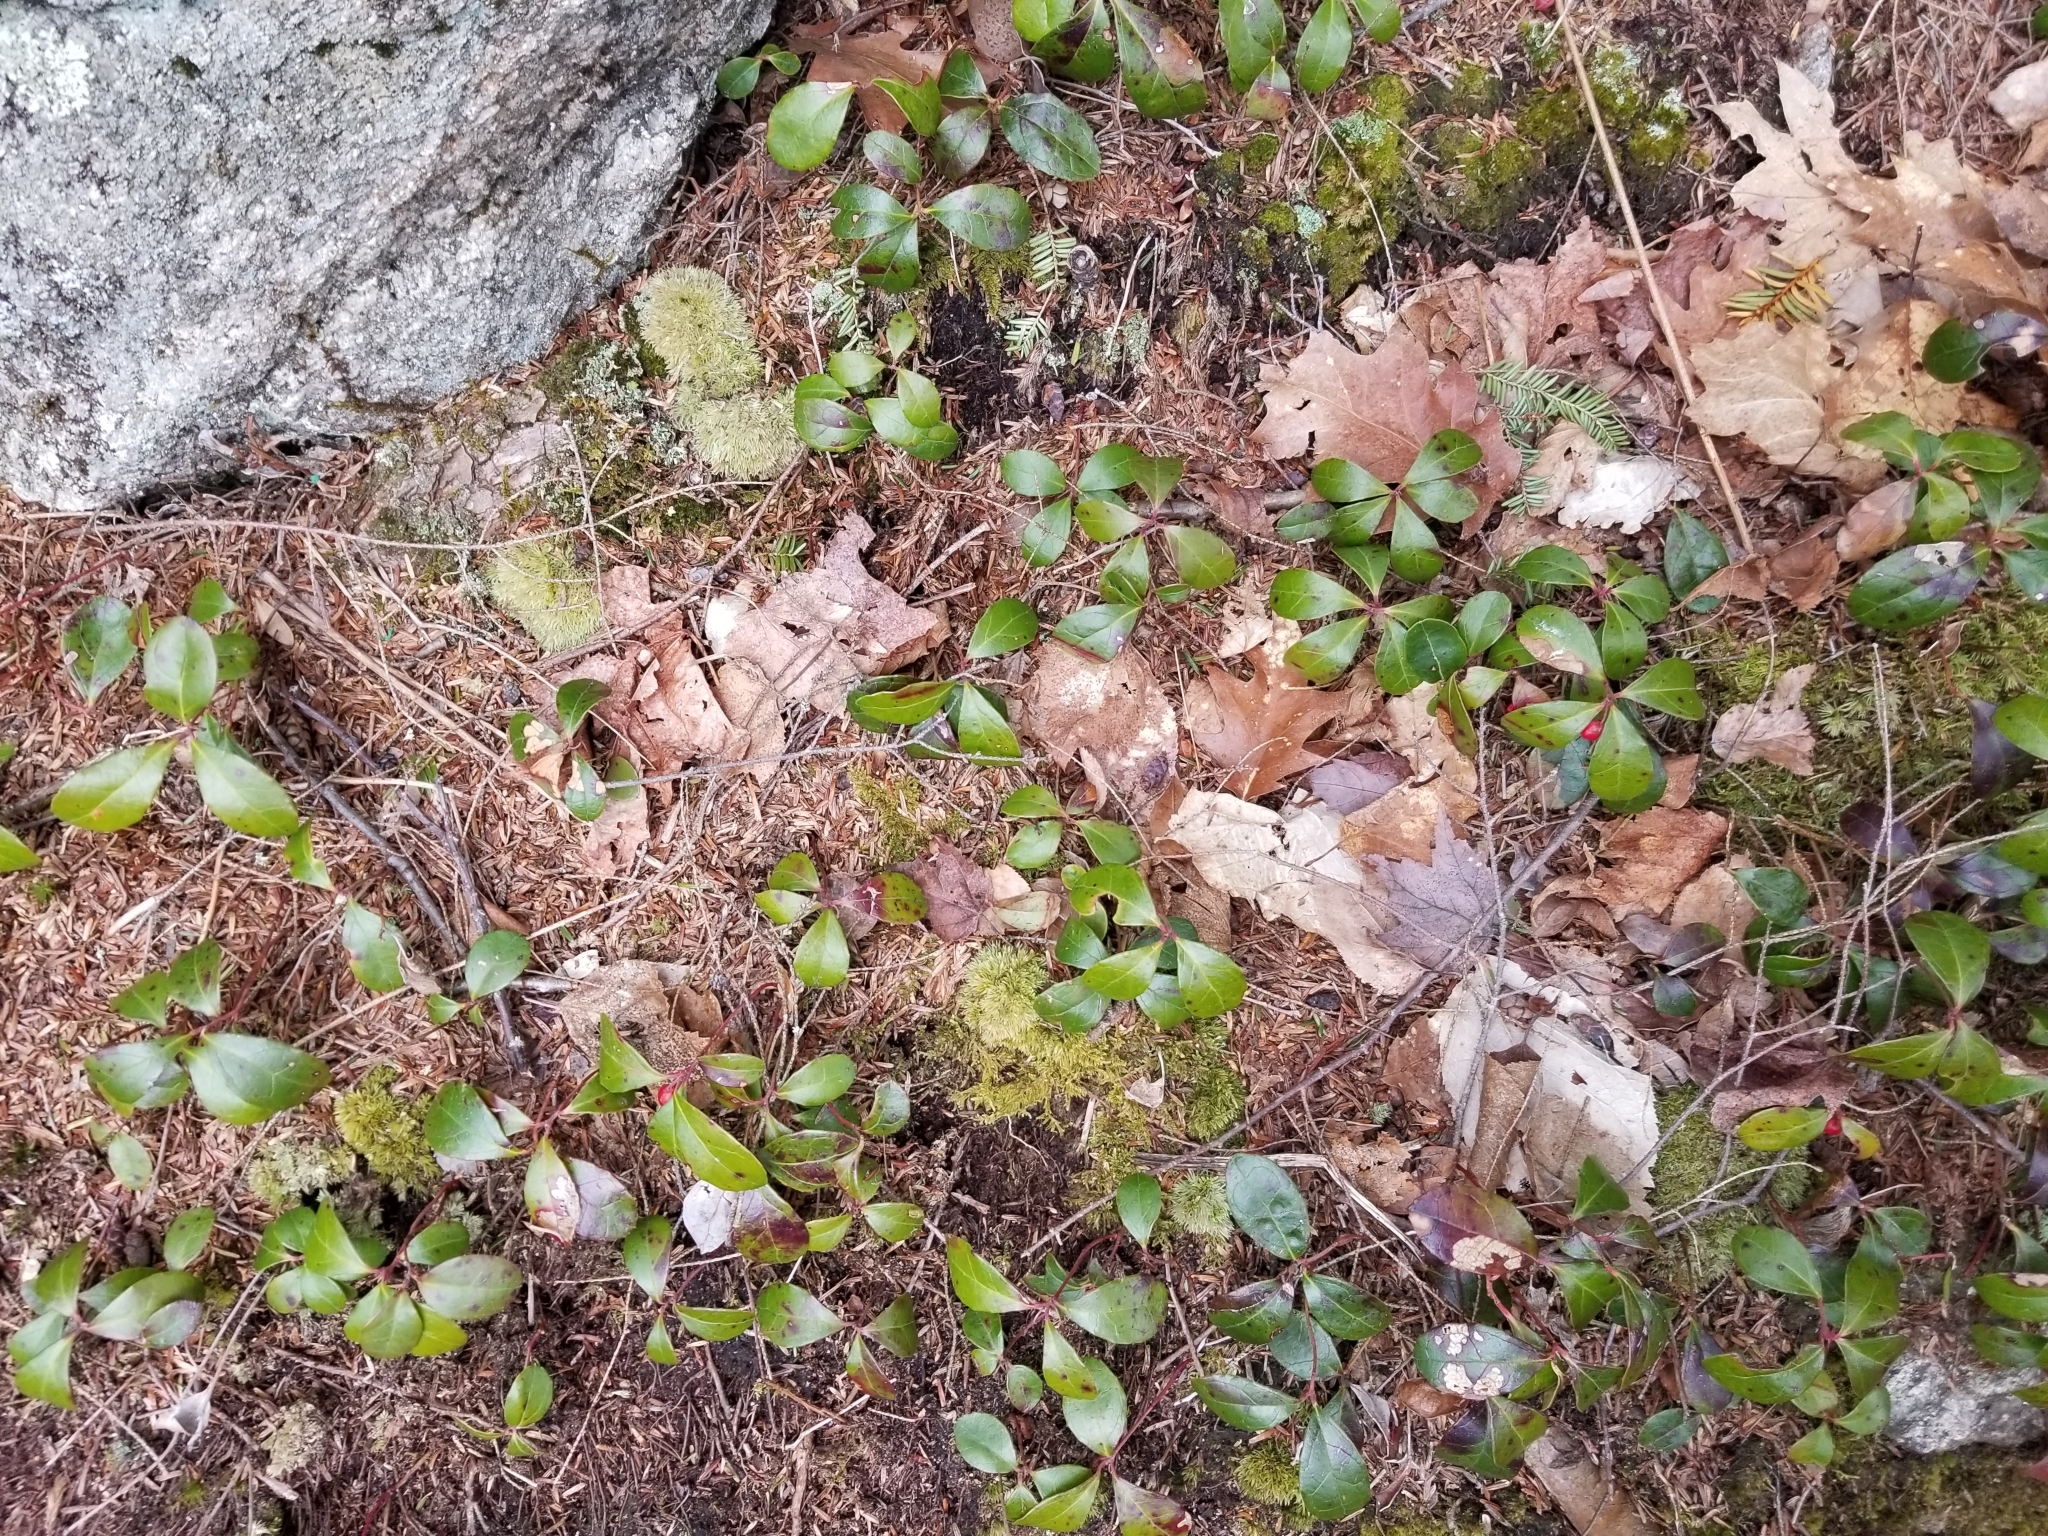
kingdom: Plantae
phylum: Tracheophyta
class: Magnoliopsida
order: Ericales
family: Ericaceae
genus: Gaultheria
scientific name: Gaultheria procumbens
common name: Checkerberry
